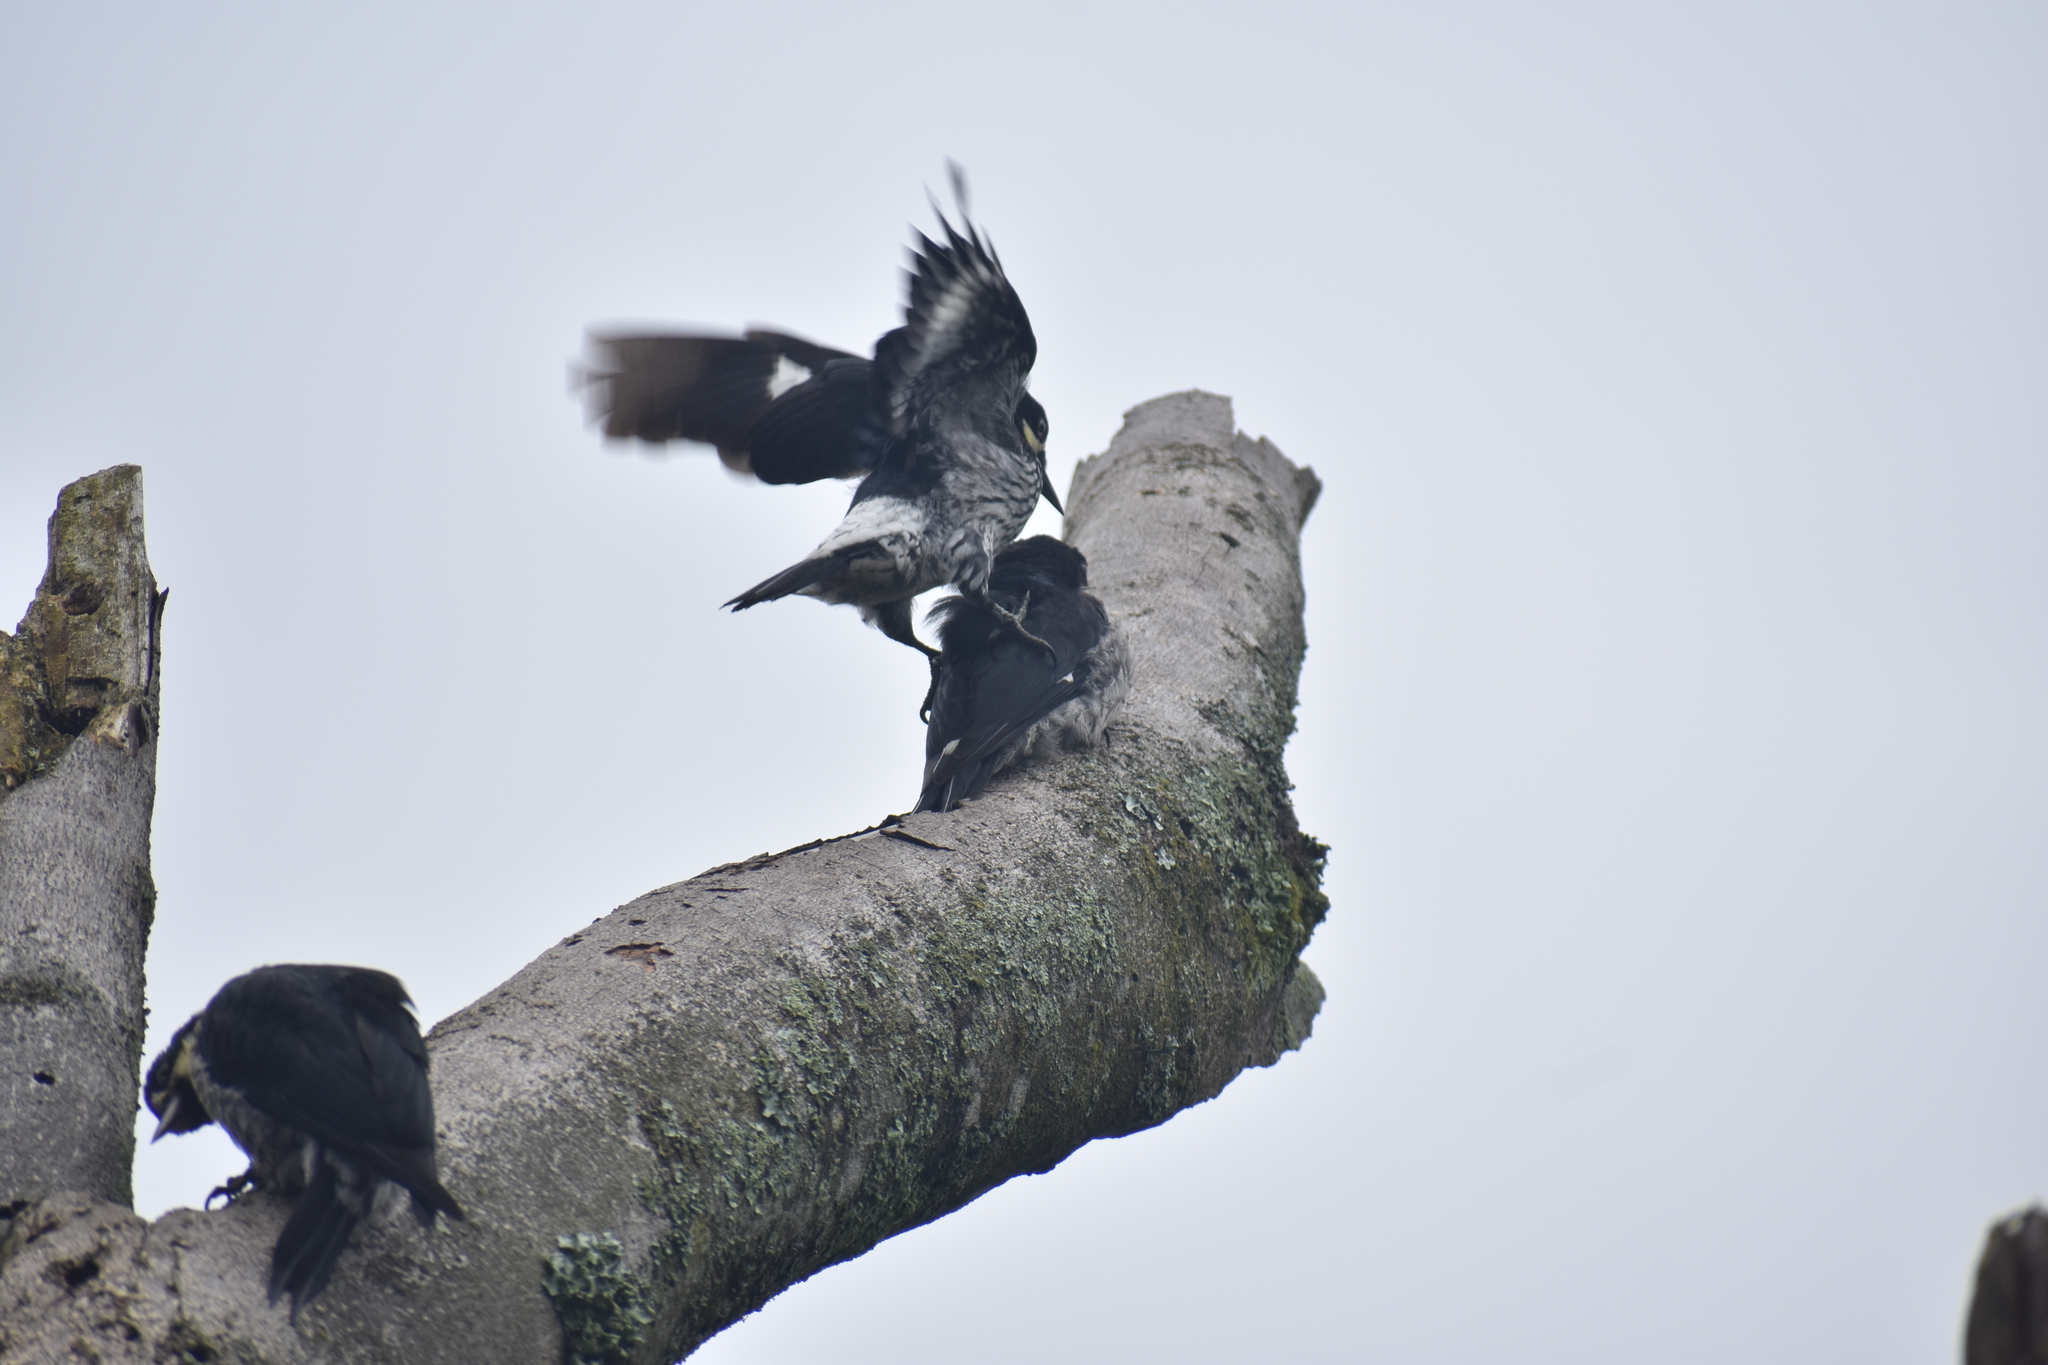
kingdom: Animalia
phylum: Chordata
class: Aves
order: Piciformes
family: Picidae
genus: Melanerpes
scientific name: Melanerpes formicivorus
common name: Acorn woodpecker
